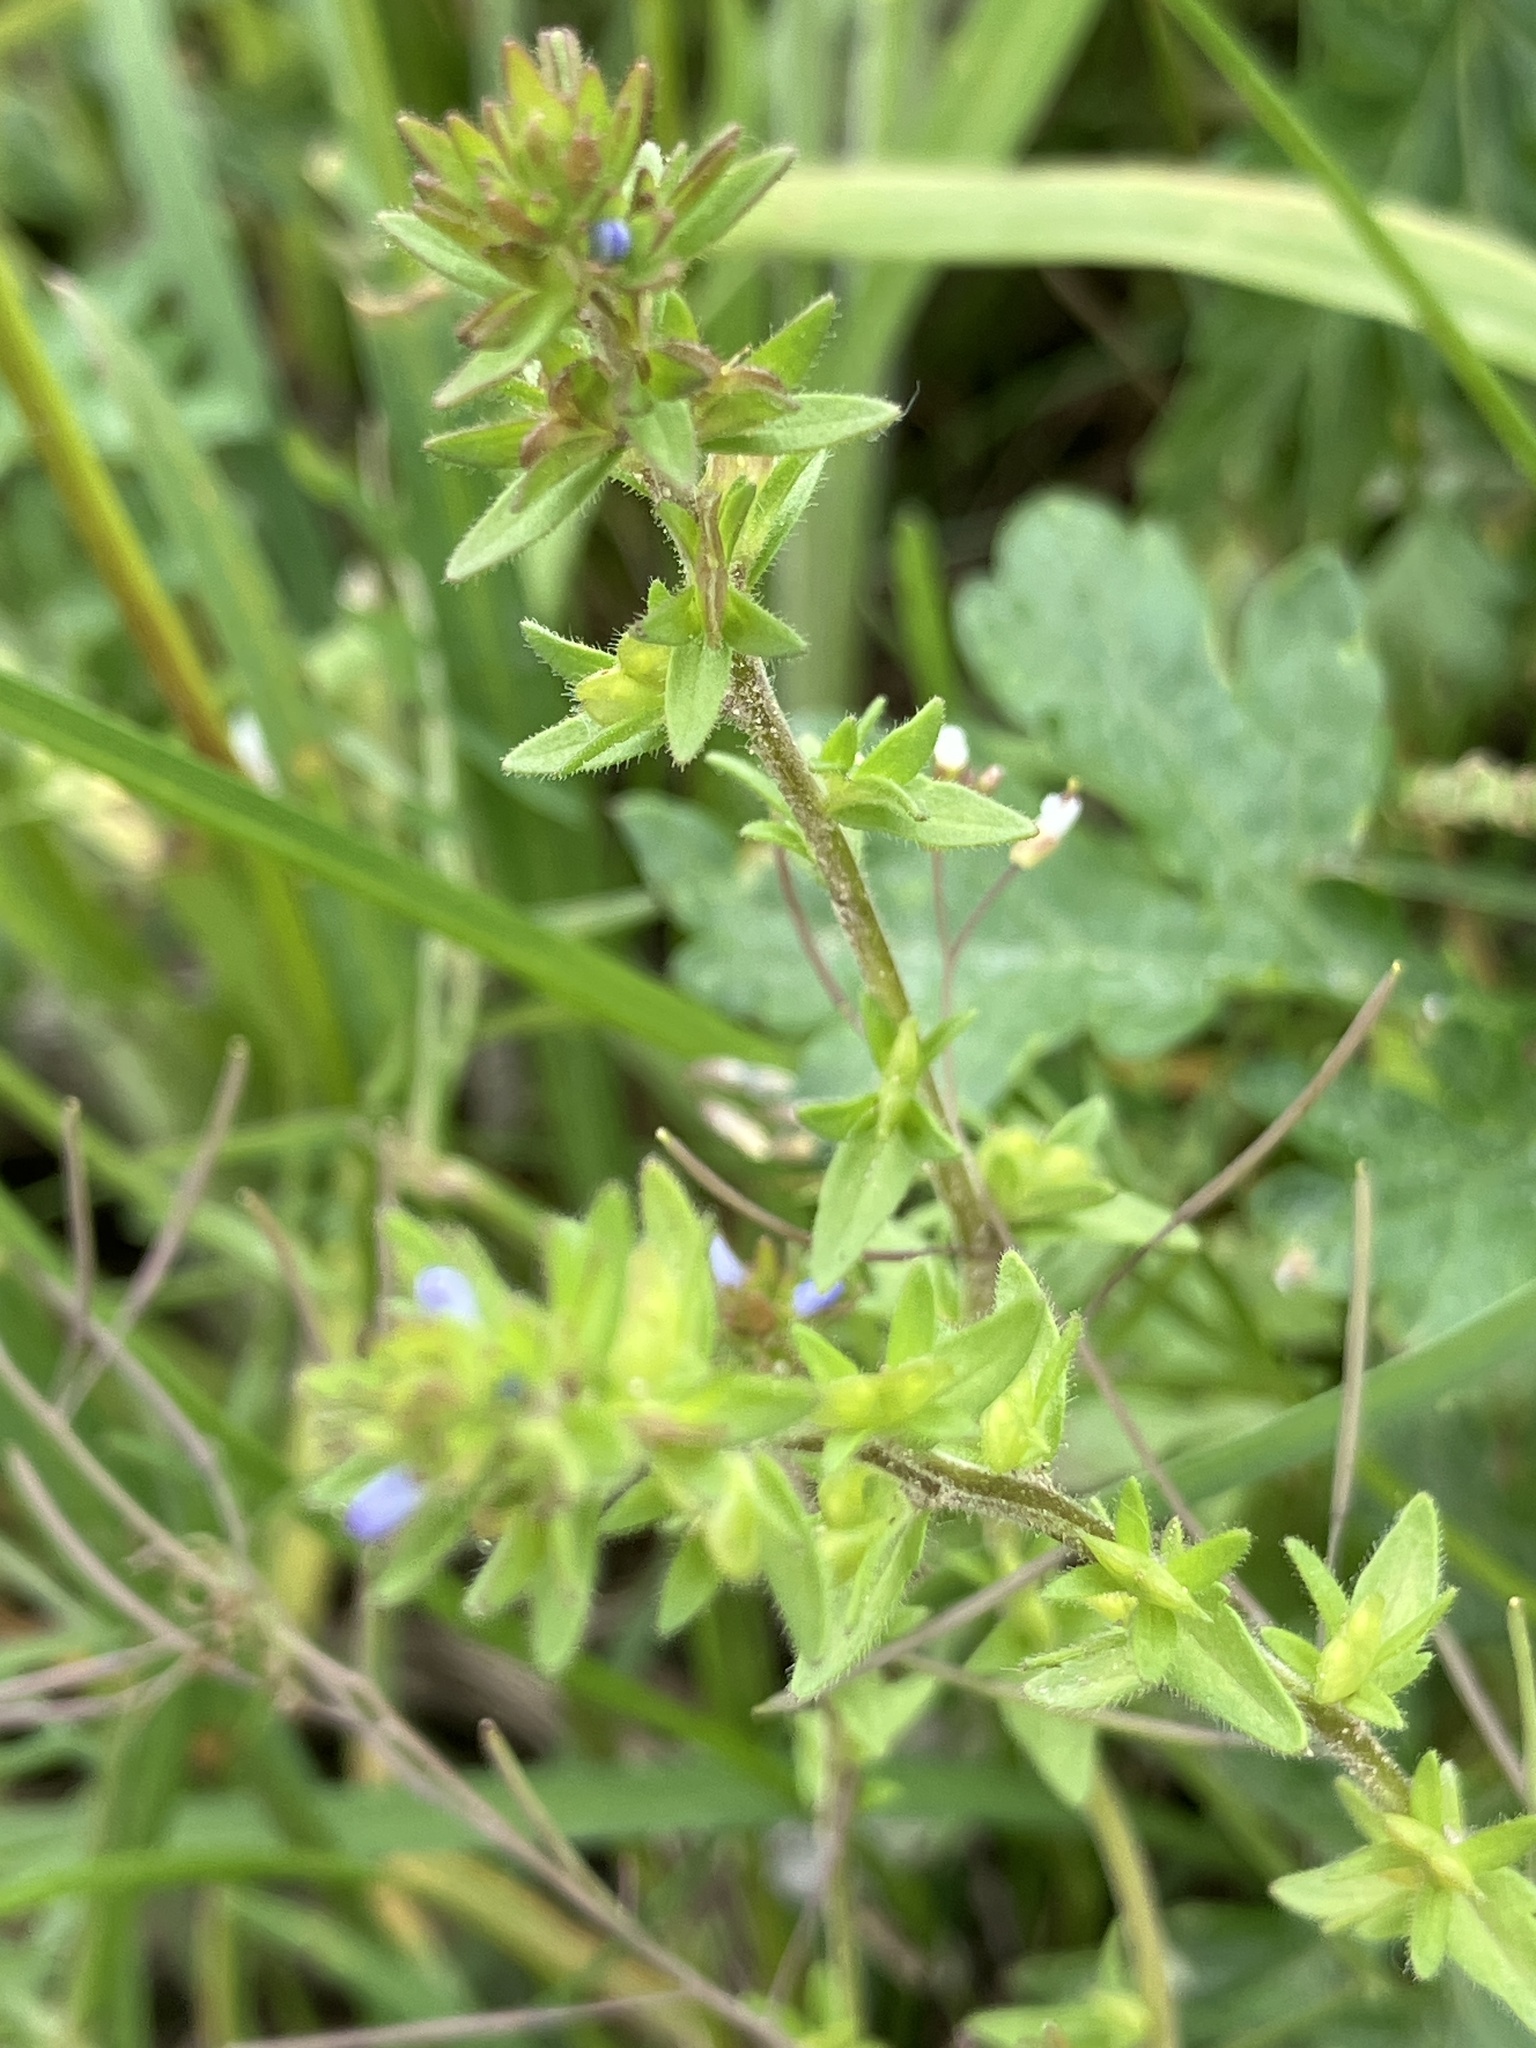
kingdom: Plantae
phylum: Tracheophyta
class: Magnoliopsida
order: Lamiales
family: Plantaginaceae
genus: Veronica
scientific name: Veronica arvensis
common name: Corn speedwell
